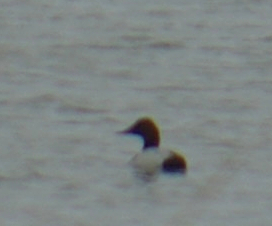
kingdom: Animalia
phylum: Chordata
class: Aves
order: Anseriformes
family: Anatidae
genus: Aythya
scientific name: Aythya valisineria
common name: Canvasback
